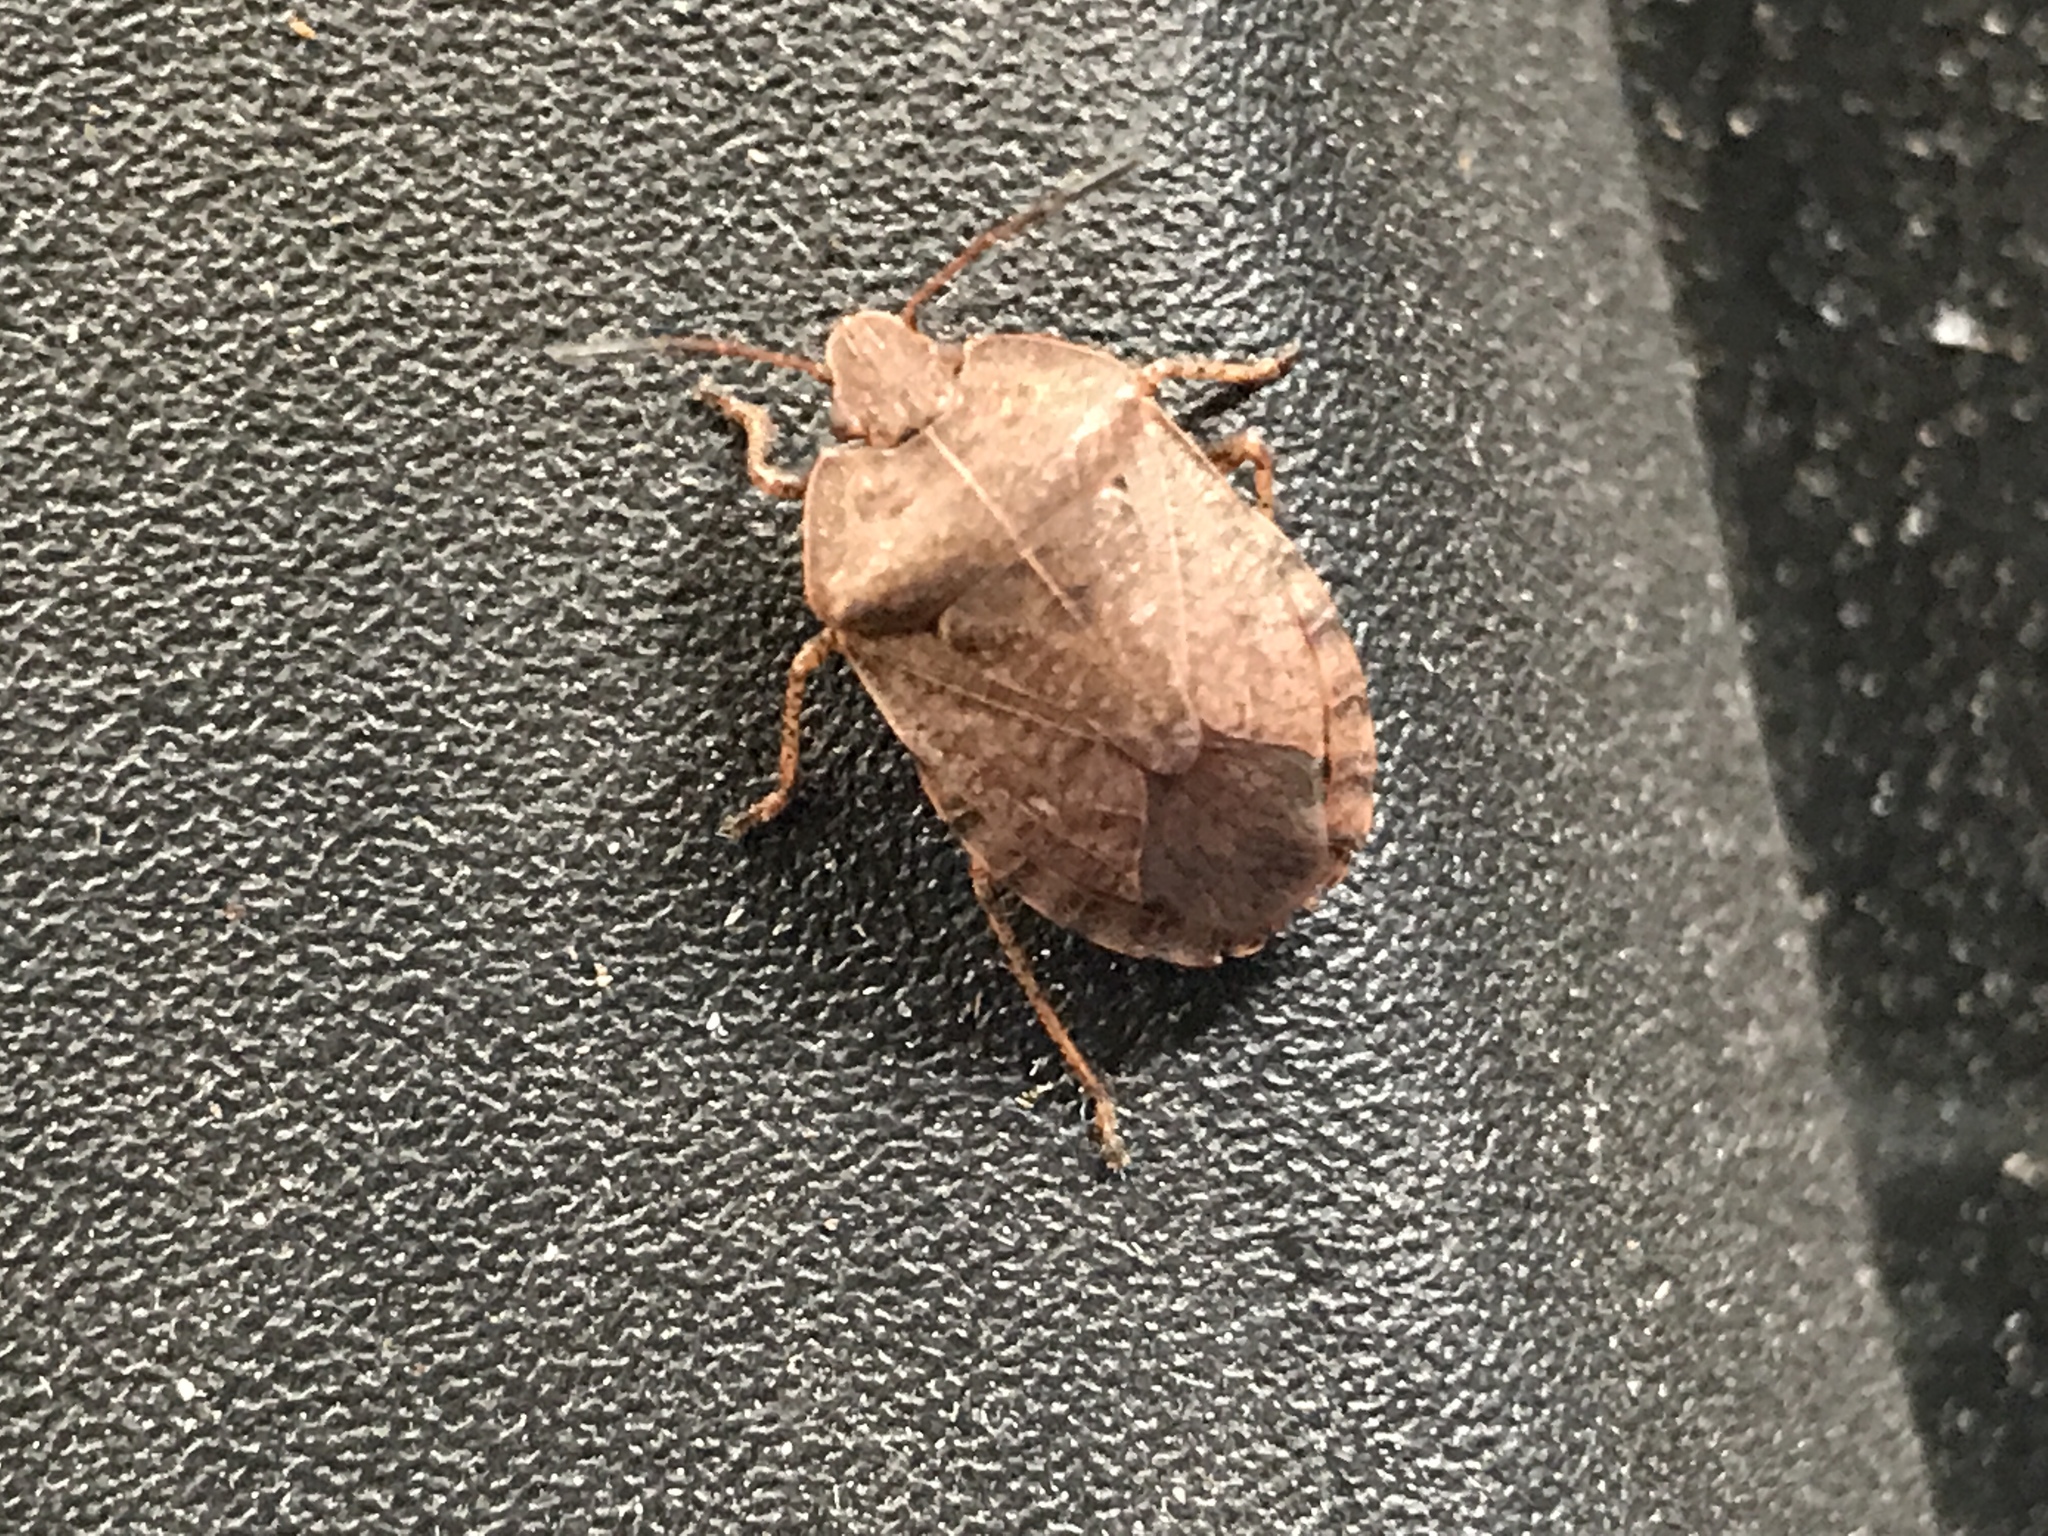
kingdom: Animalia
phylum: Arthropoda
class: Insecta
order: Hemiptera
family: Pentatomidae
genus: Menecles
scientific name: Menecles insertus
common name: Elf shoe stink bug
